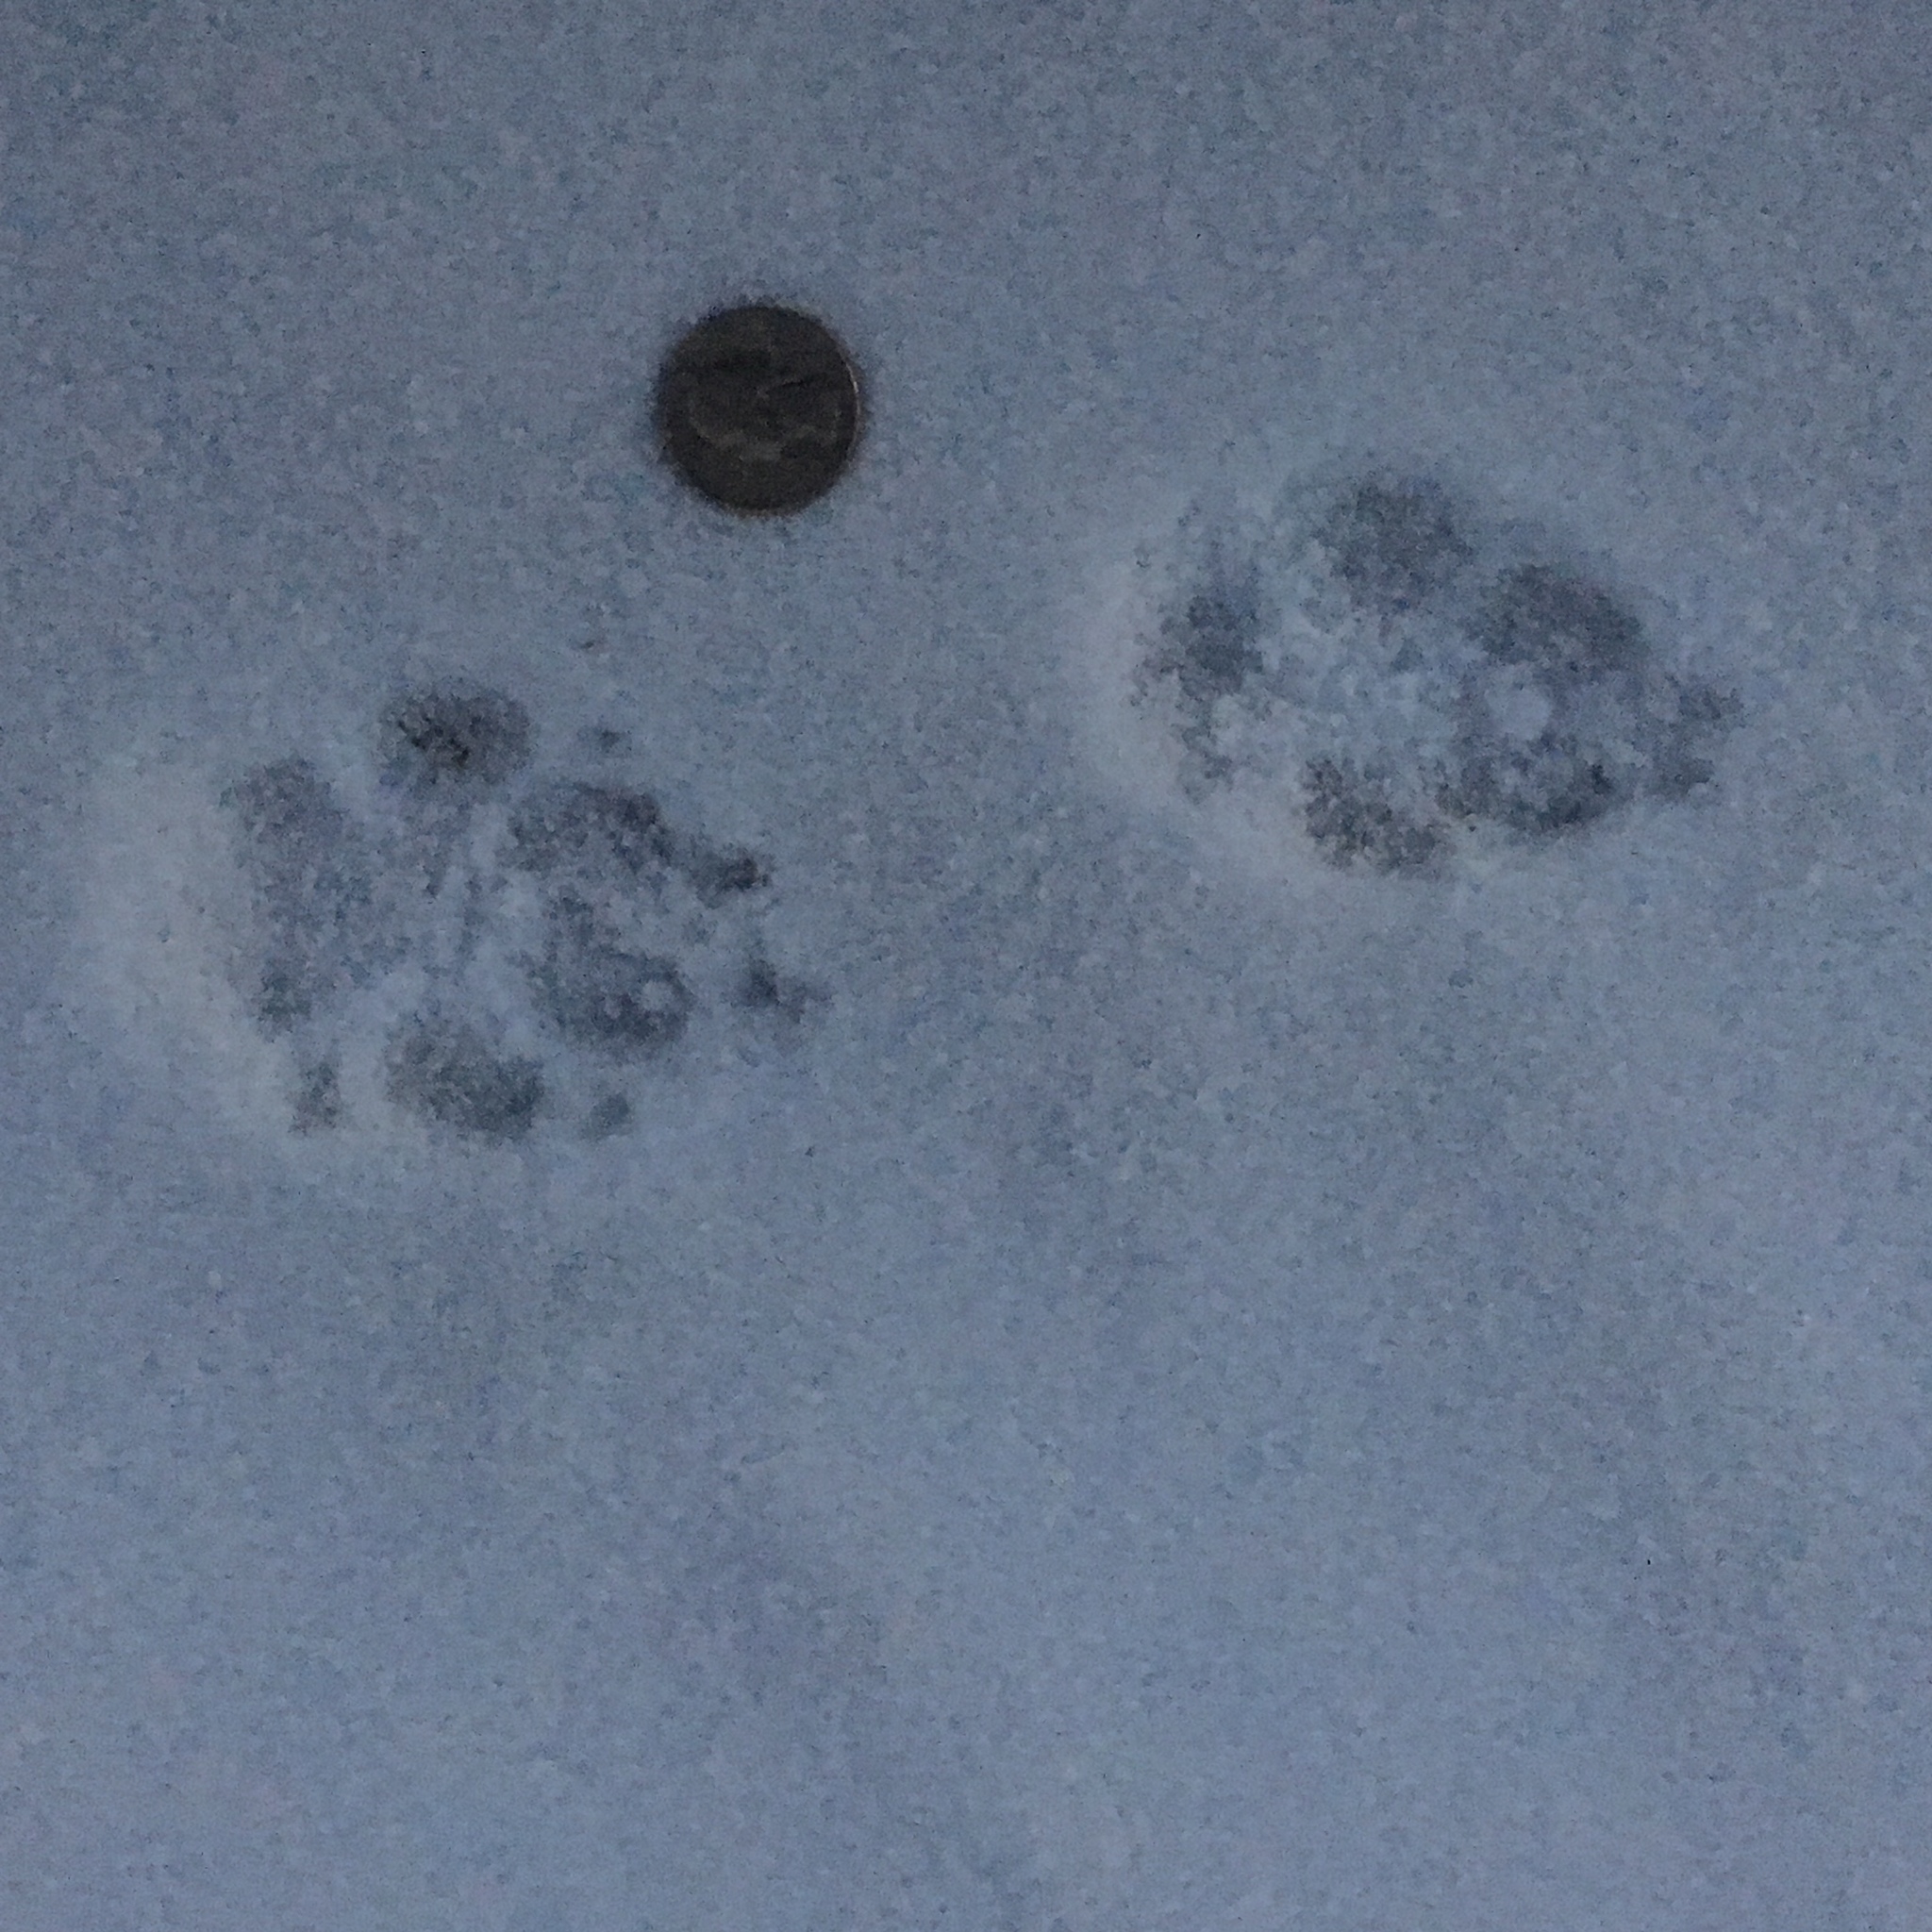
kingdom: Animalia
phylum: Chordata
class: Mammalia
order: Carnivora
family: Canidae
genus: Canis
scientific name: Canis latrans
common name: Coyote
